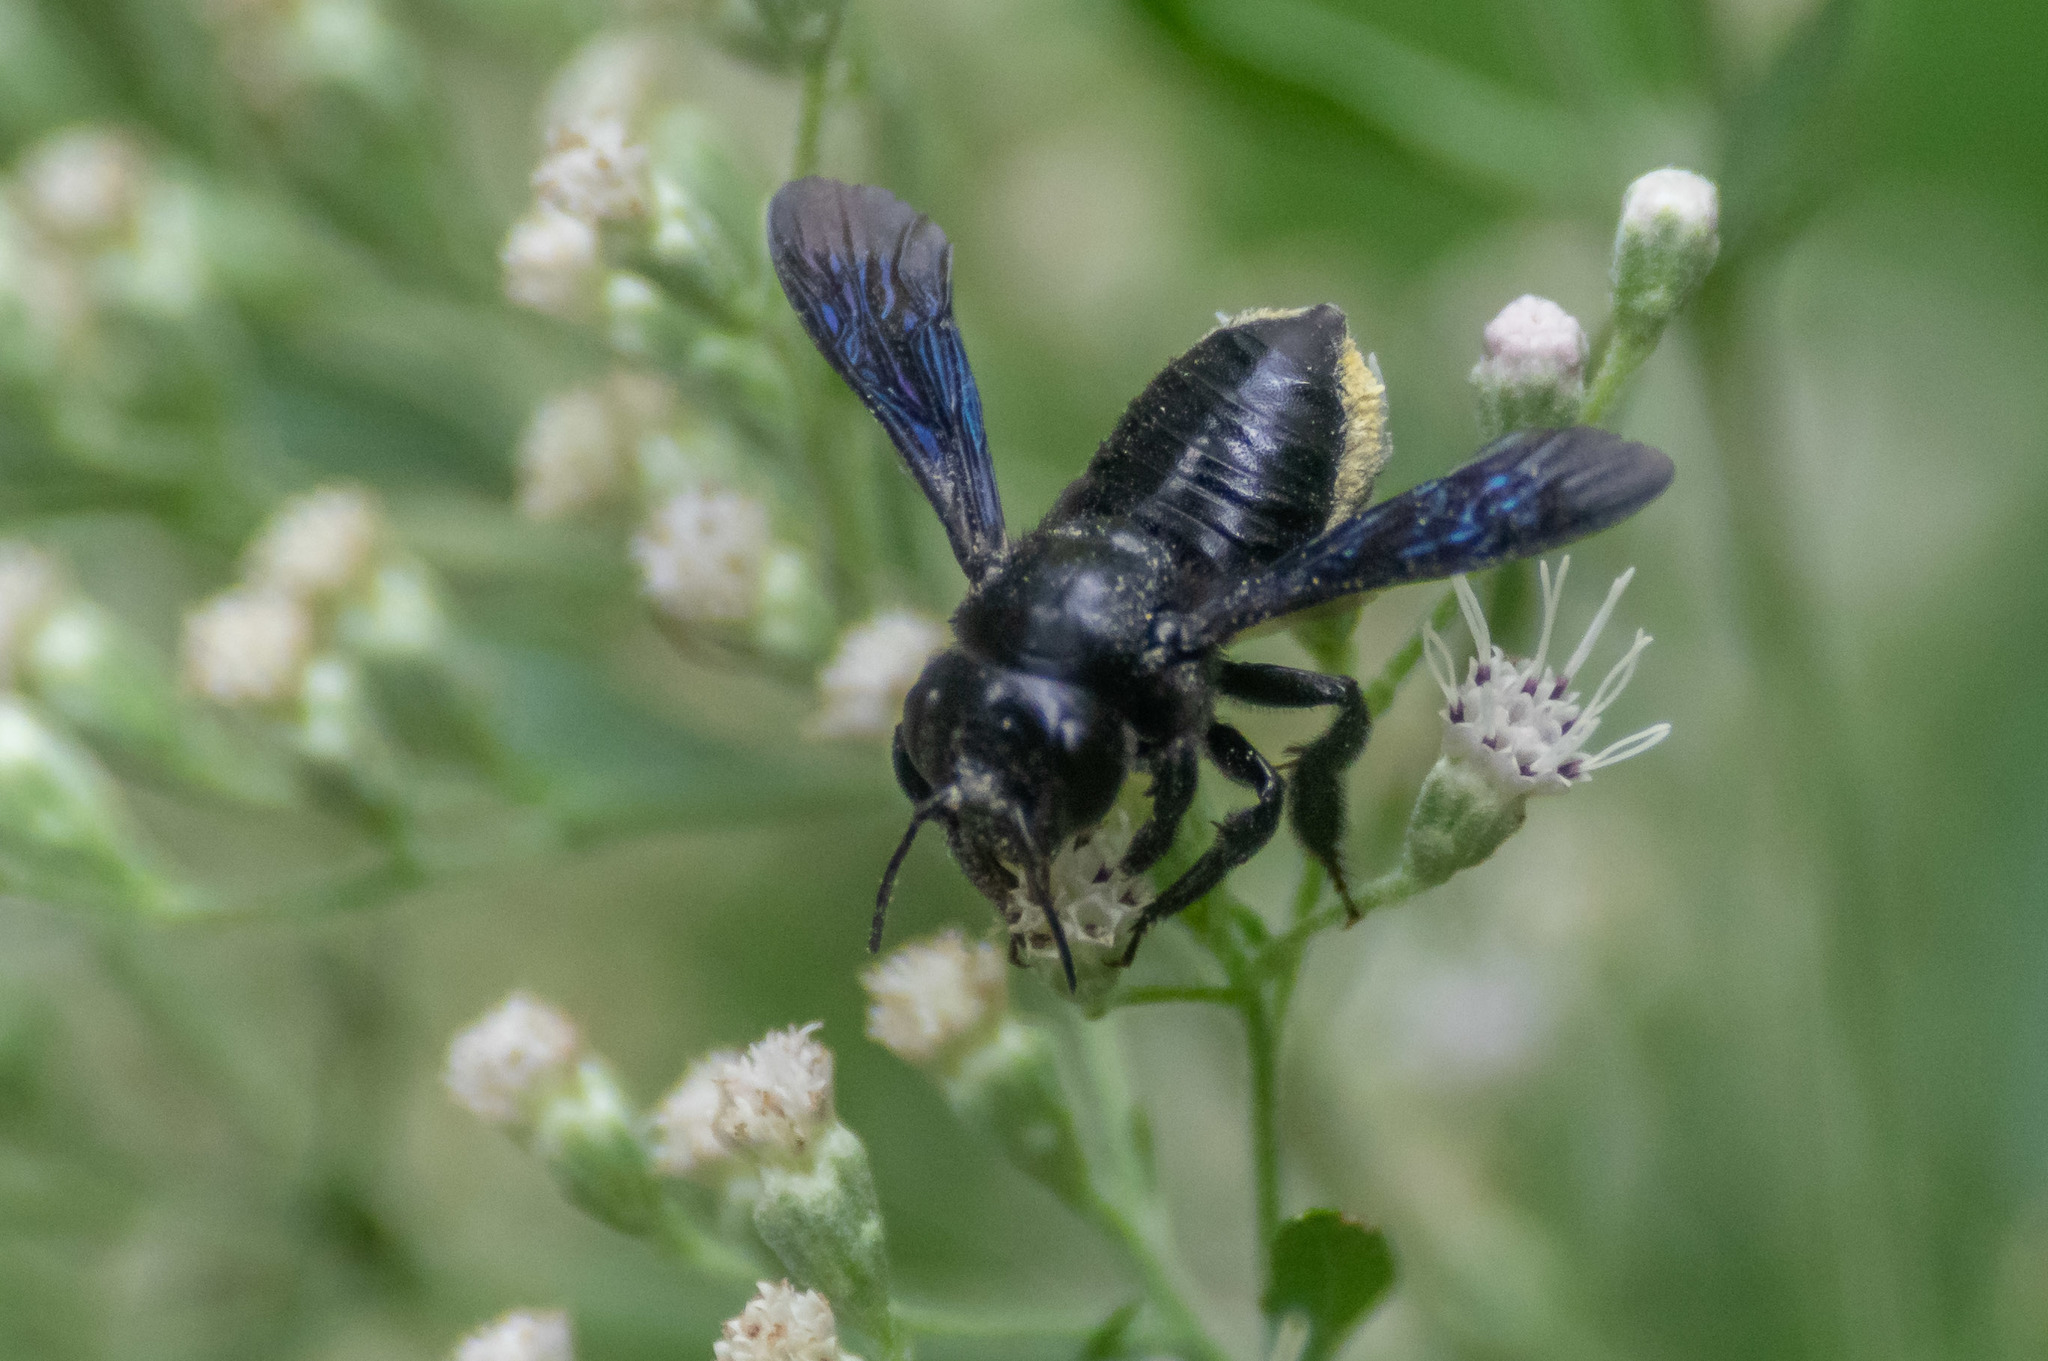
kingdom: Animalia
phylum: Arthropoda
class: Insecta
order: Hymenoptera
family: Megachilidae
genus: Megachile
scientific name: Megachile xylocopoides
